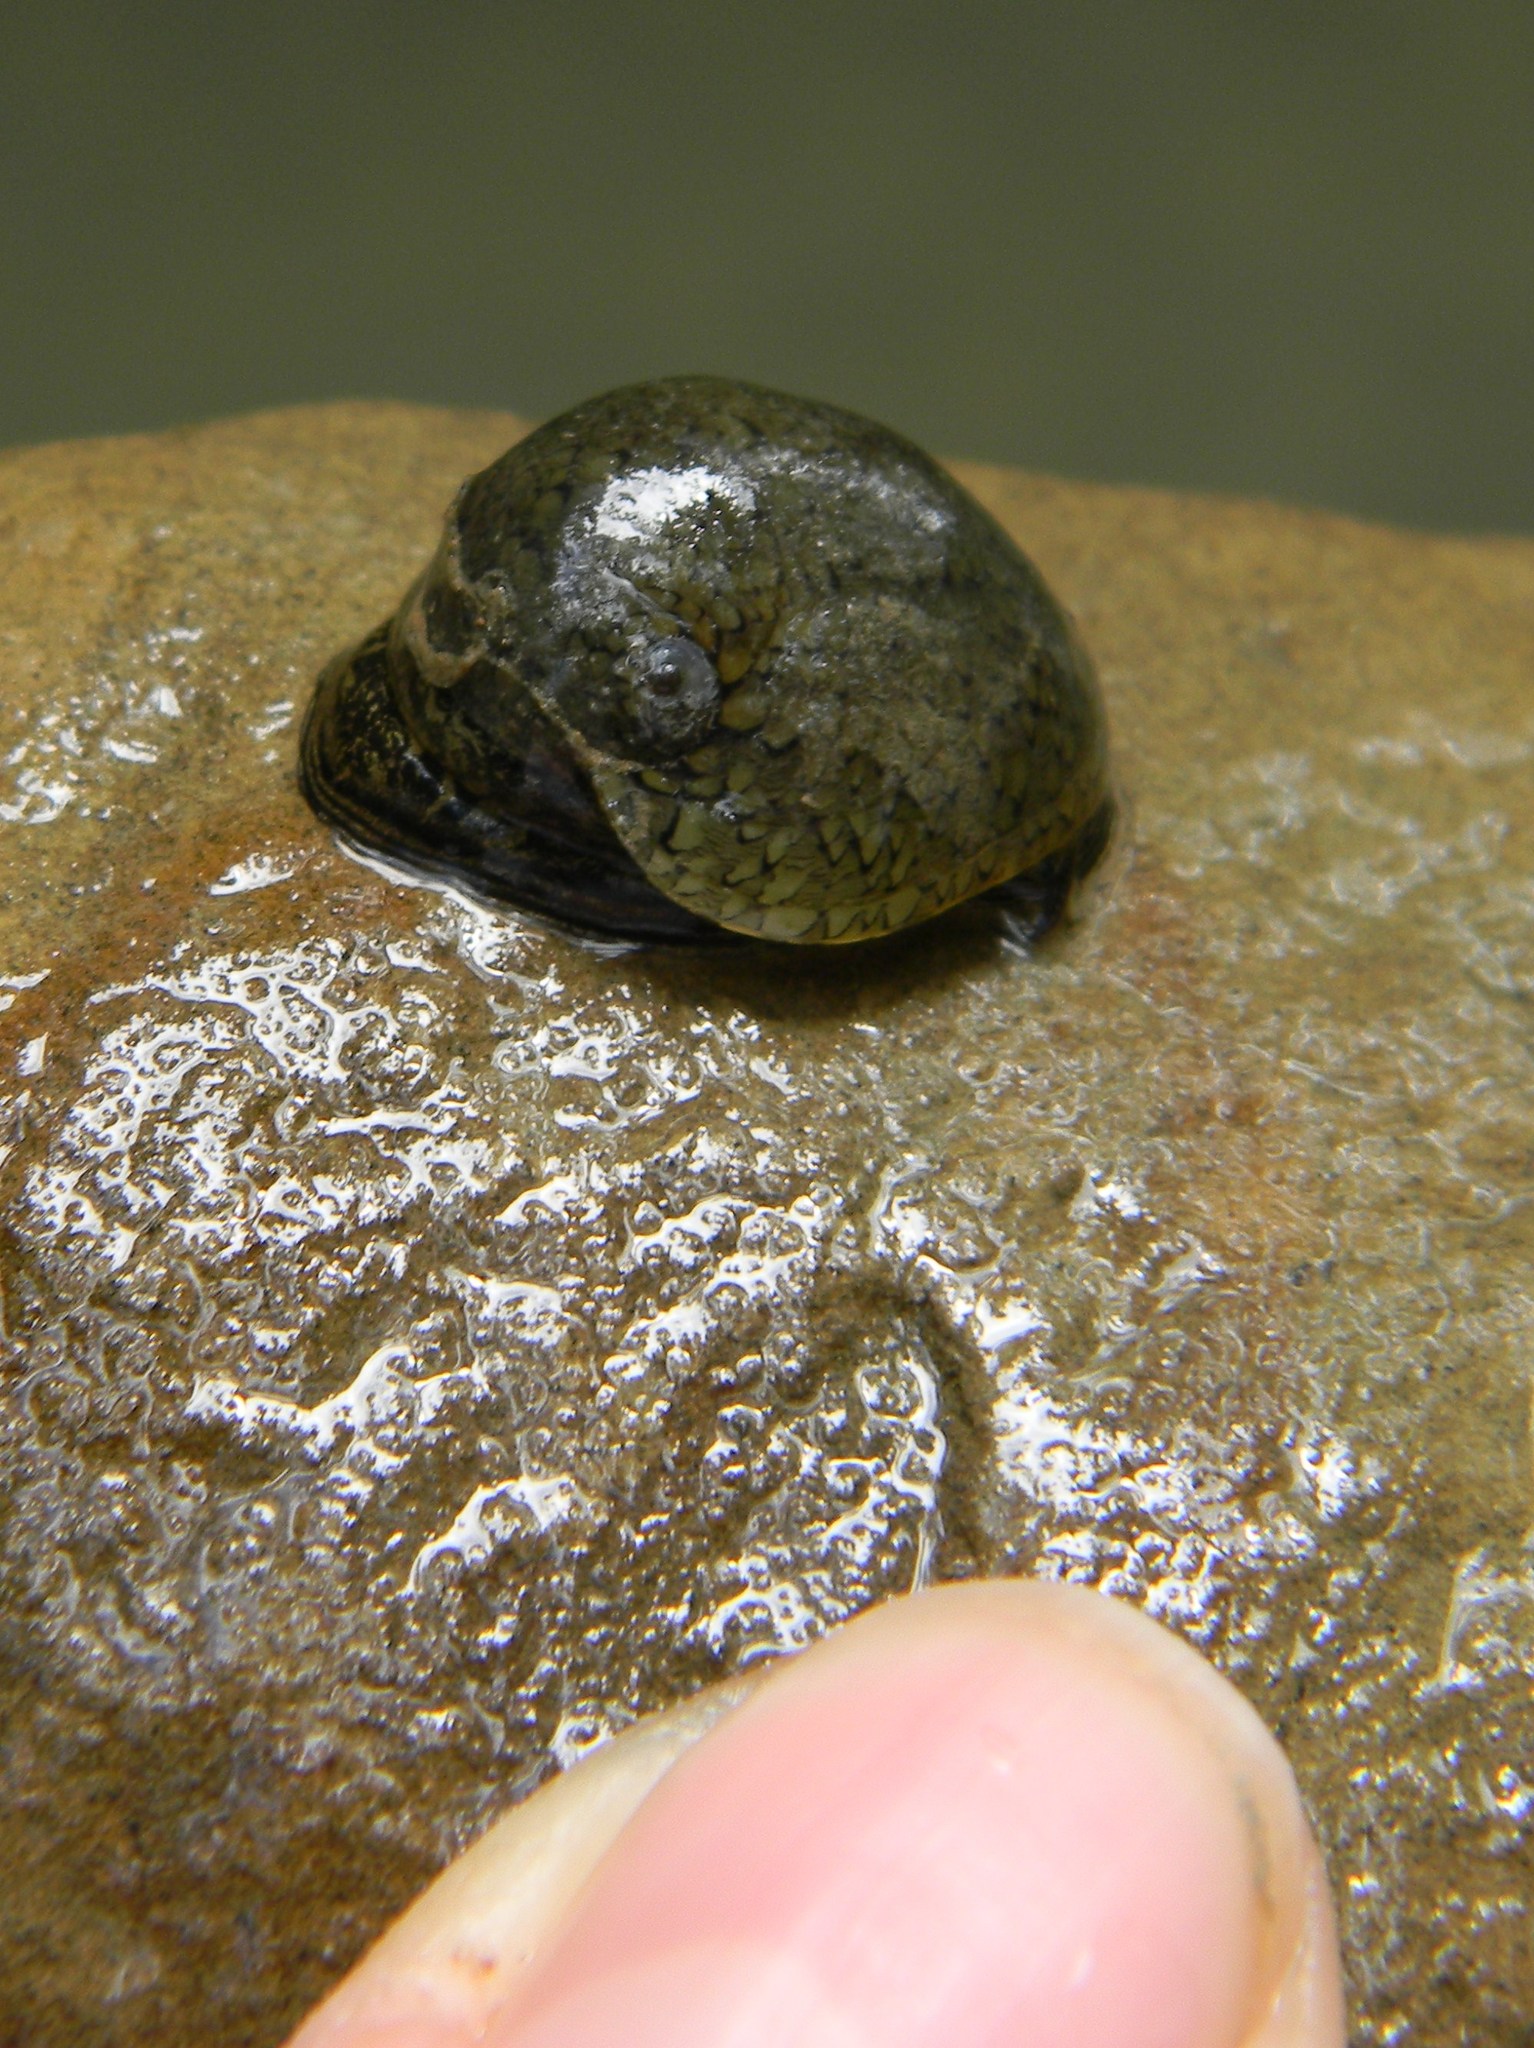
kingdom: Animalia
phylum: Mollusca
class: Gastropoda
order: Cycloneritida
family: Neritidae
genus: Clypeolum
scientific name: Clypeolum latissimum
